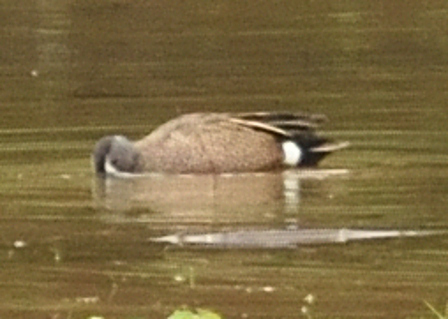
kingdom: Animalia
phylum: Chordata
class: Aves
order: Anseriformes
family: Anatidae
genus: Spatula
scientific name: Spatula discors
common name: Blue-winged teal
